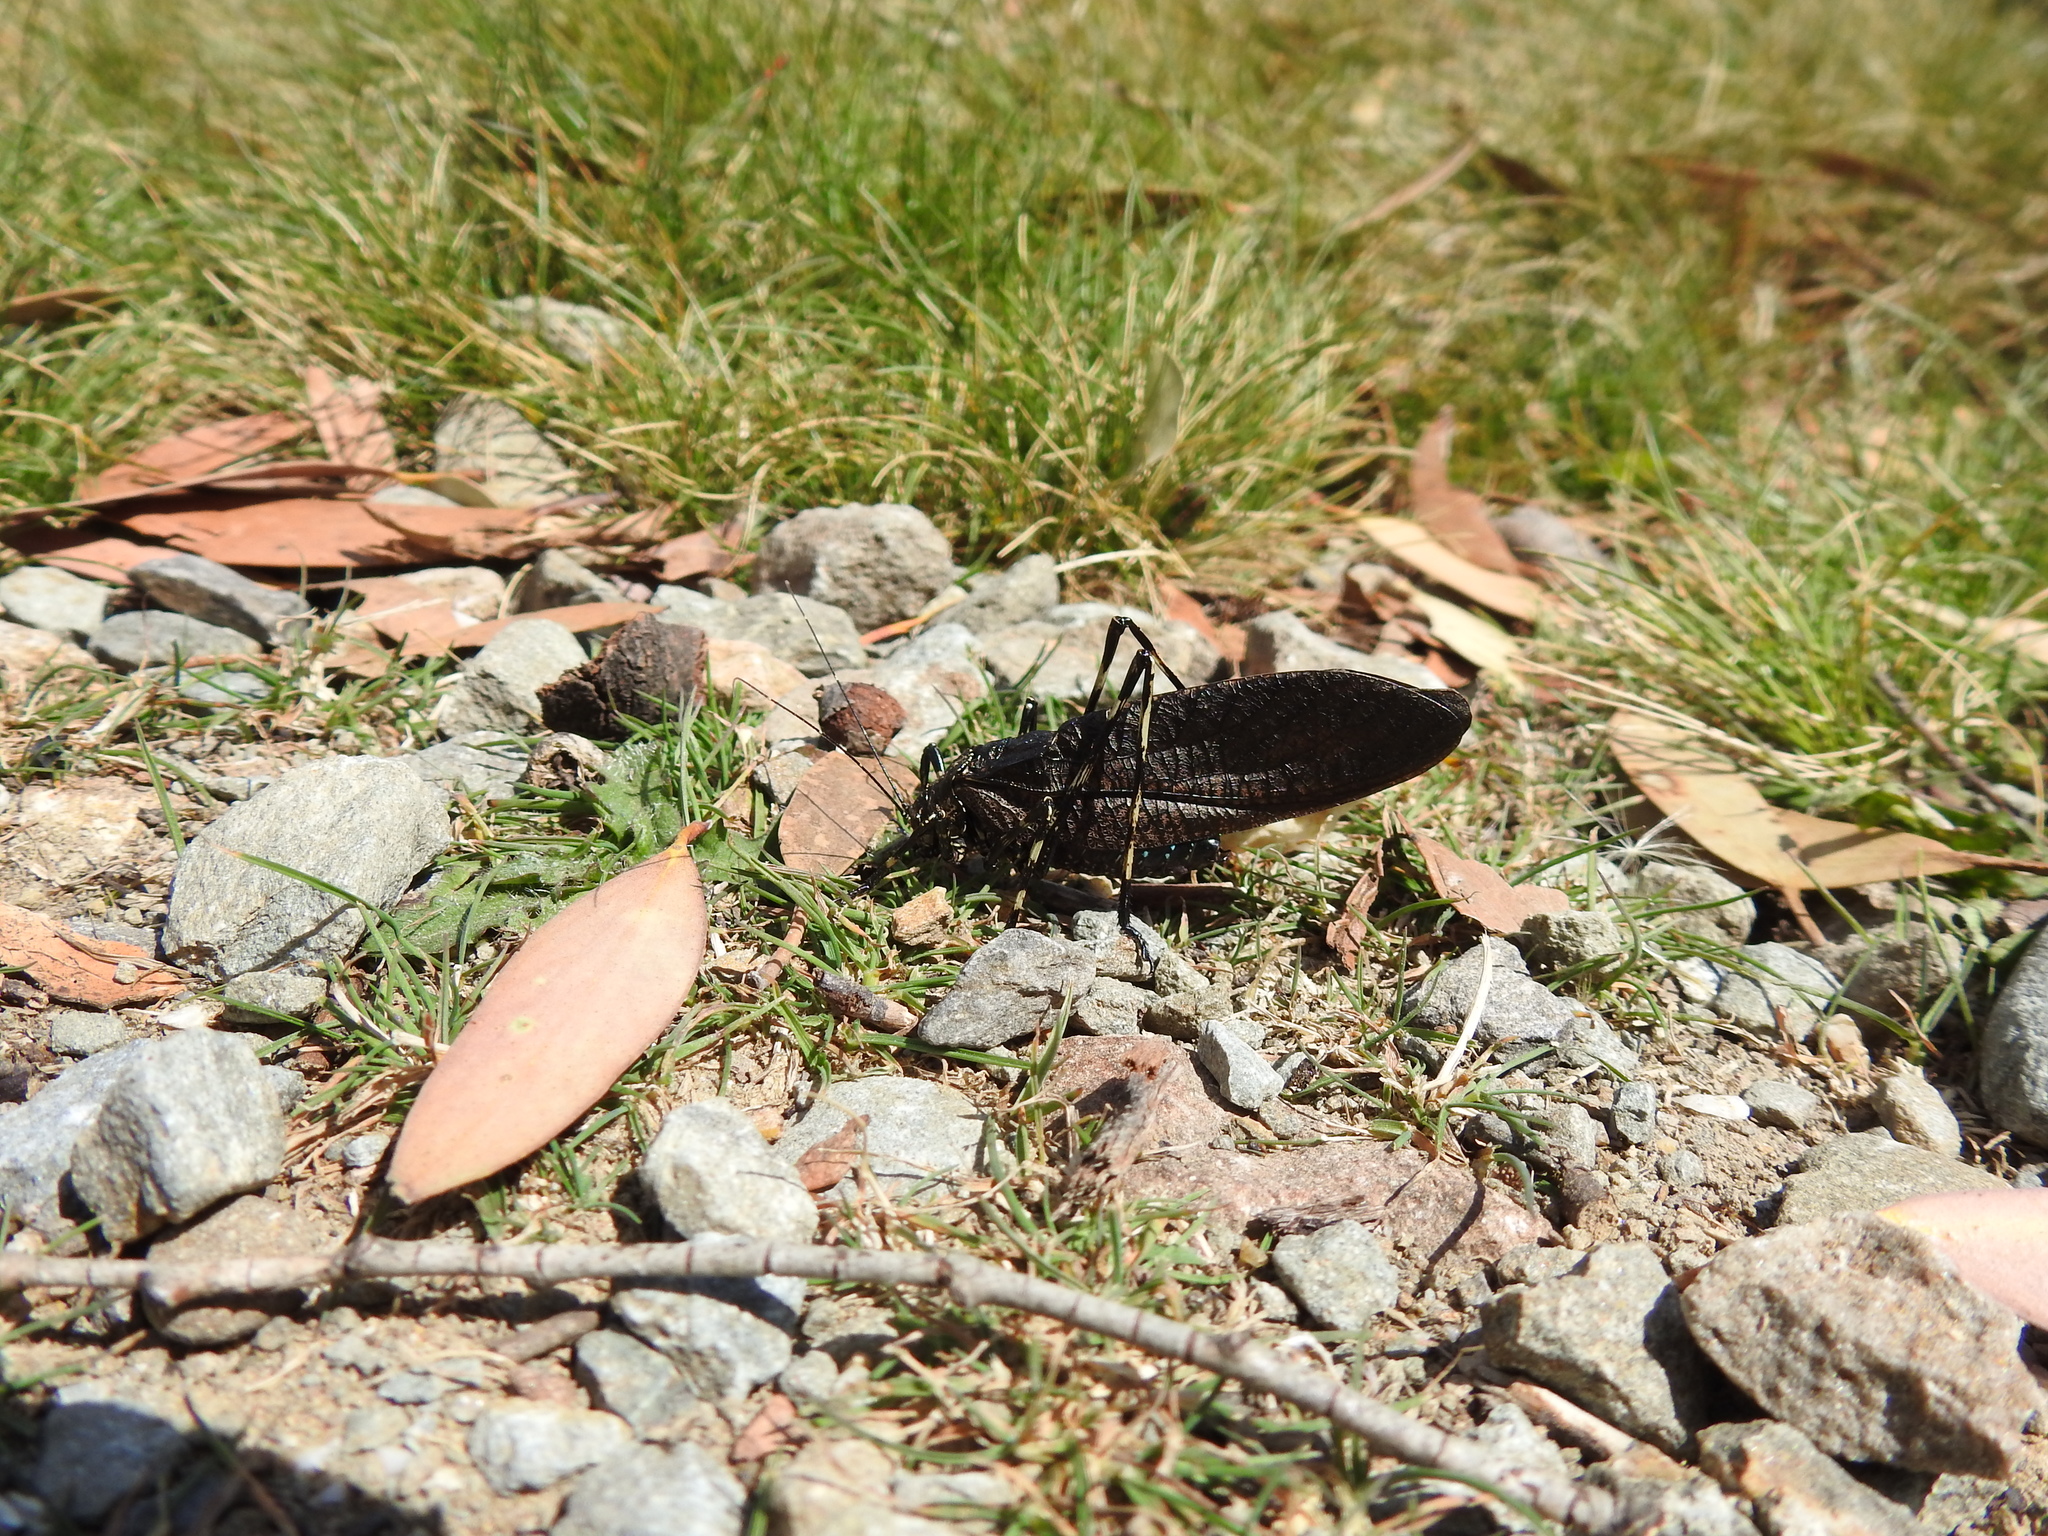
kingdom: Animalia
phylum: Arthropoda
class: Insecta
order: Orthoptera
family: Tettigoniidae
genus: Acripeza
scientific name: Acripeza reticulata
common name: Mountain katydid
